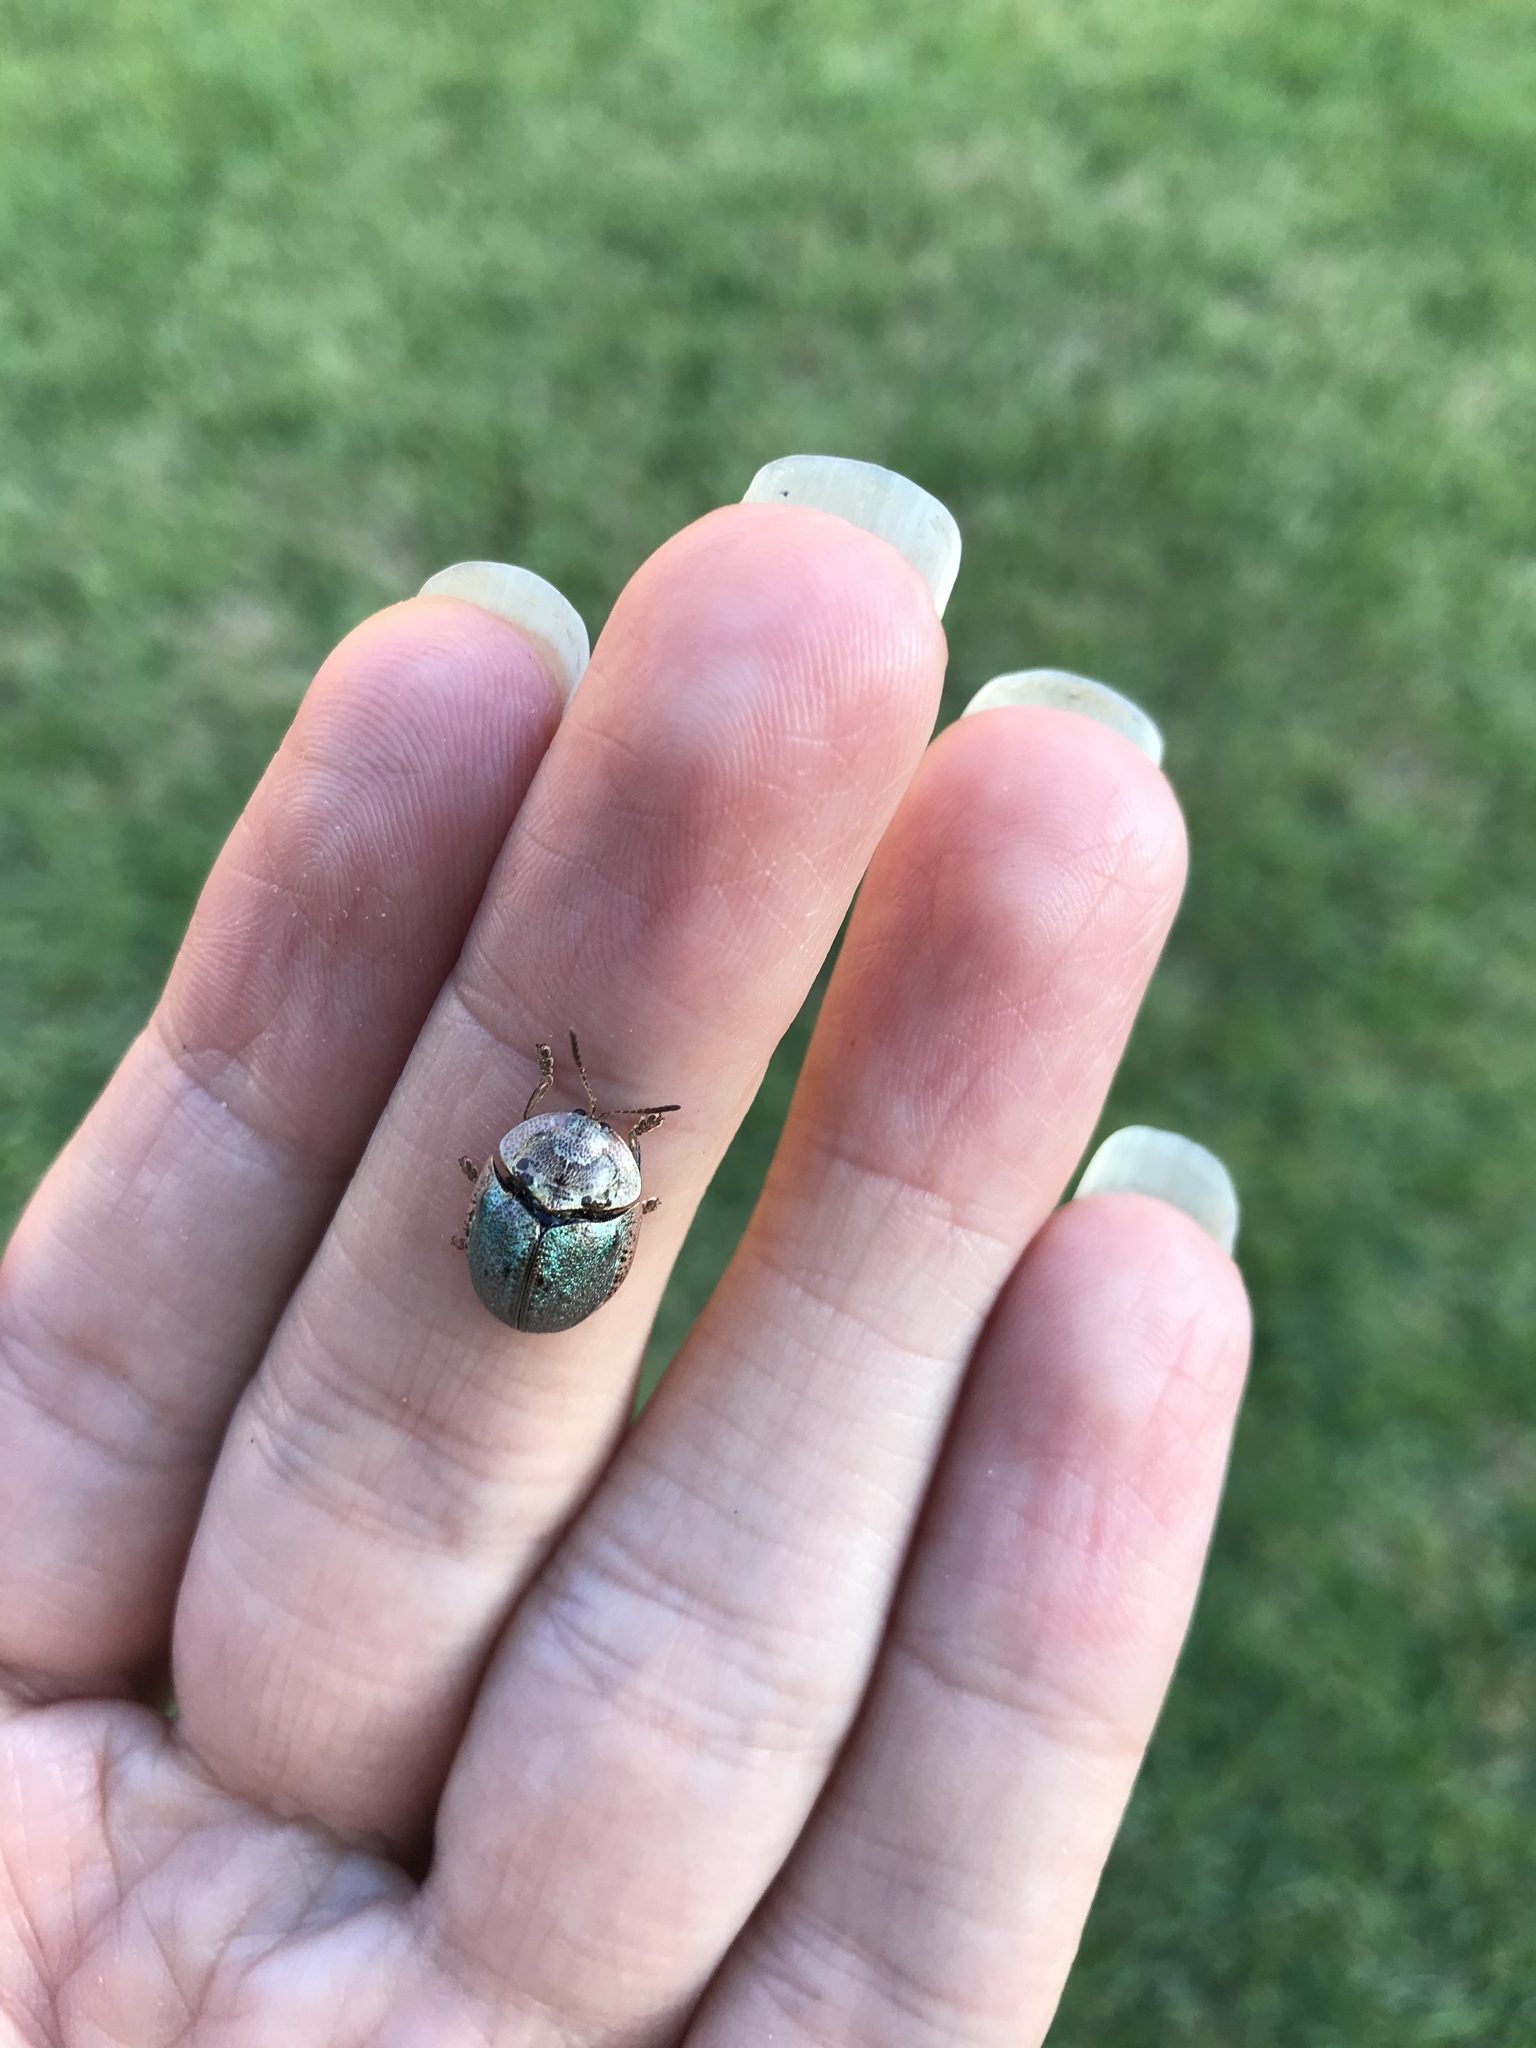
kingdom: Animalia
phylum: Arthropoda
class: Insecta
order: Coleoptera
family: Chrysomelidae
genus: Physonota
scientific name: Physonota alutacea
